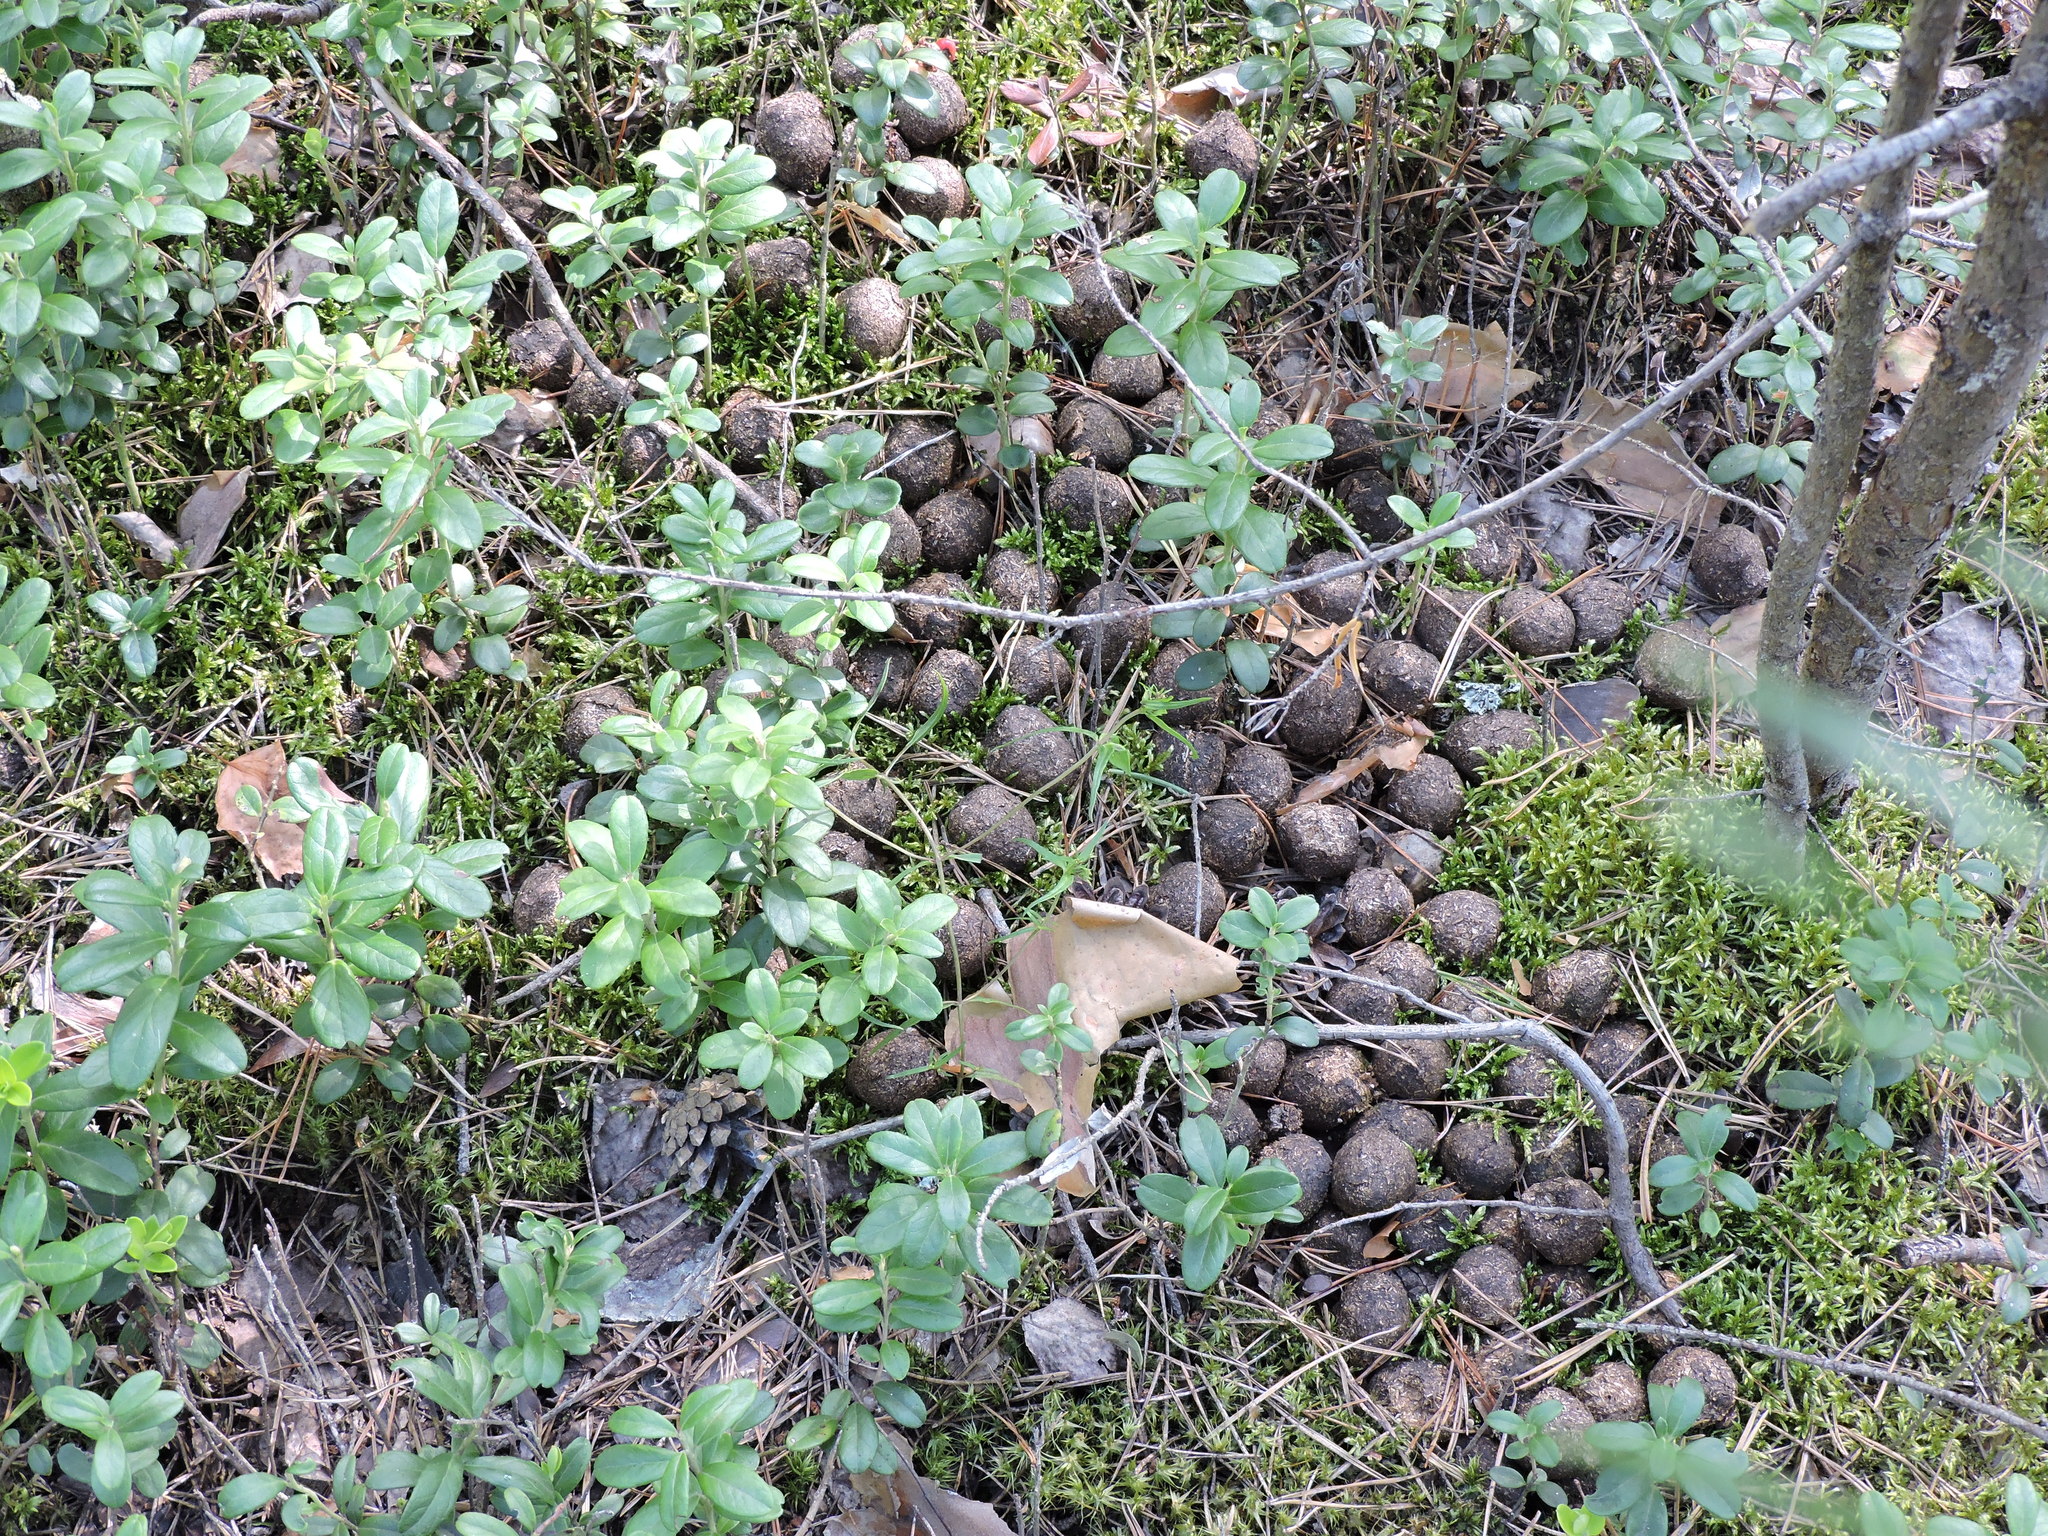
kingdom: Animalia
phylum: Chordata
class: Mammalia
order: Artiodactyla
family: Cervidae
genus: Alces
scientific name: Alces alces
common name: Moose
